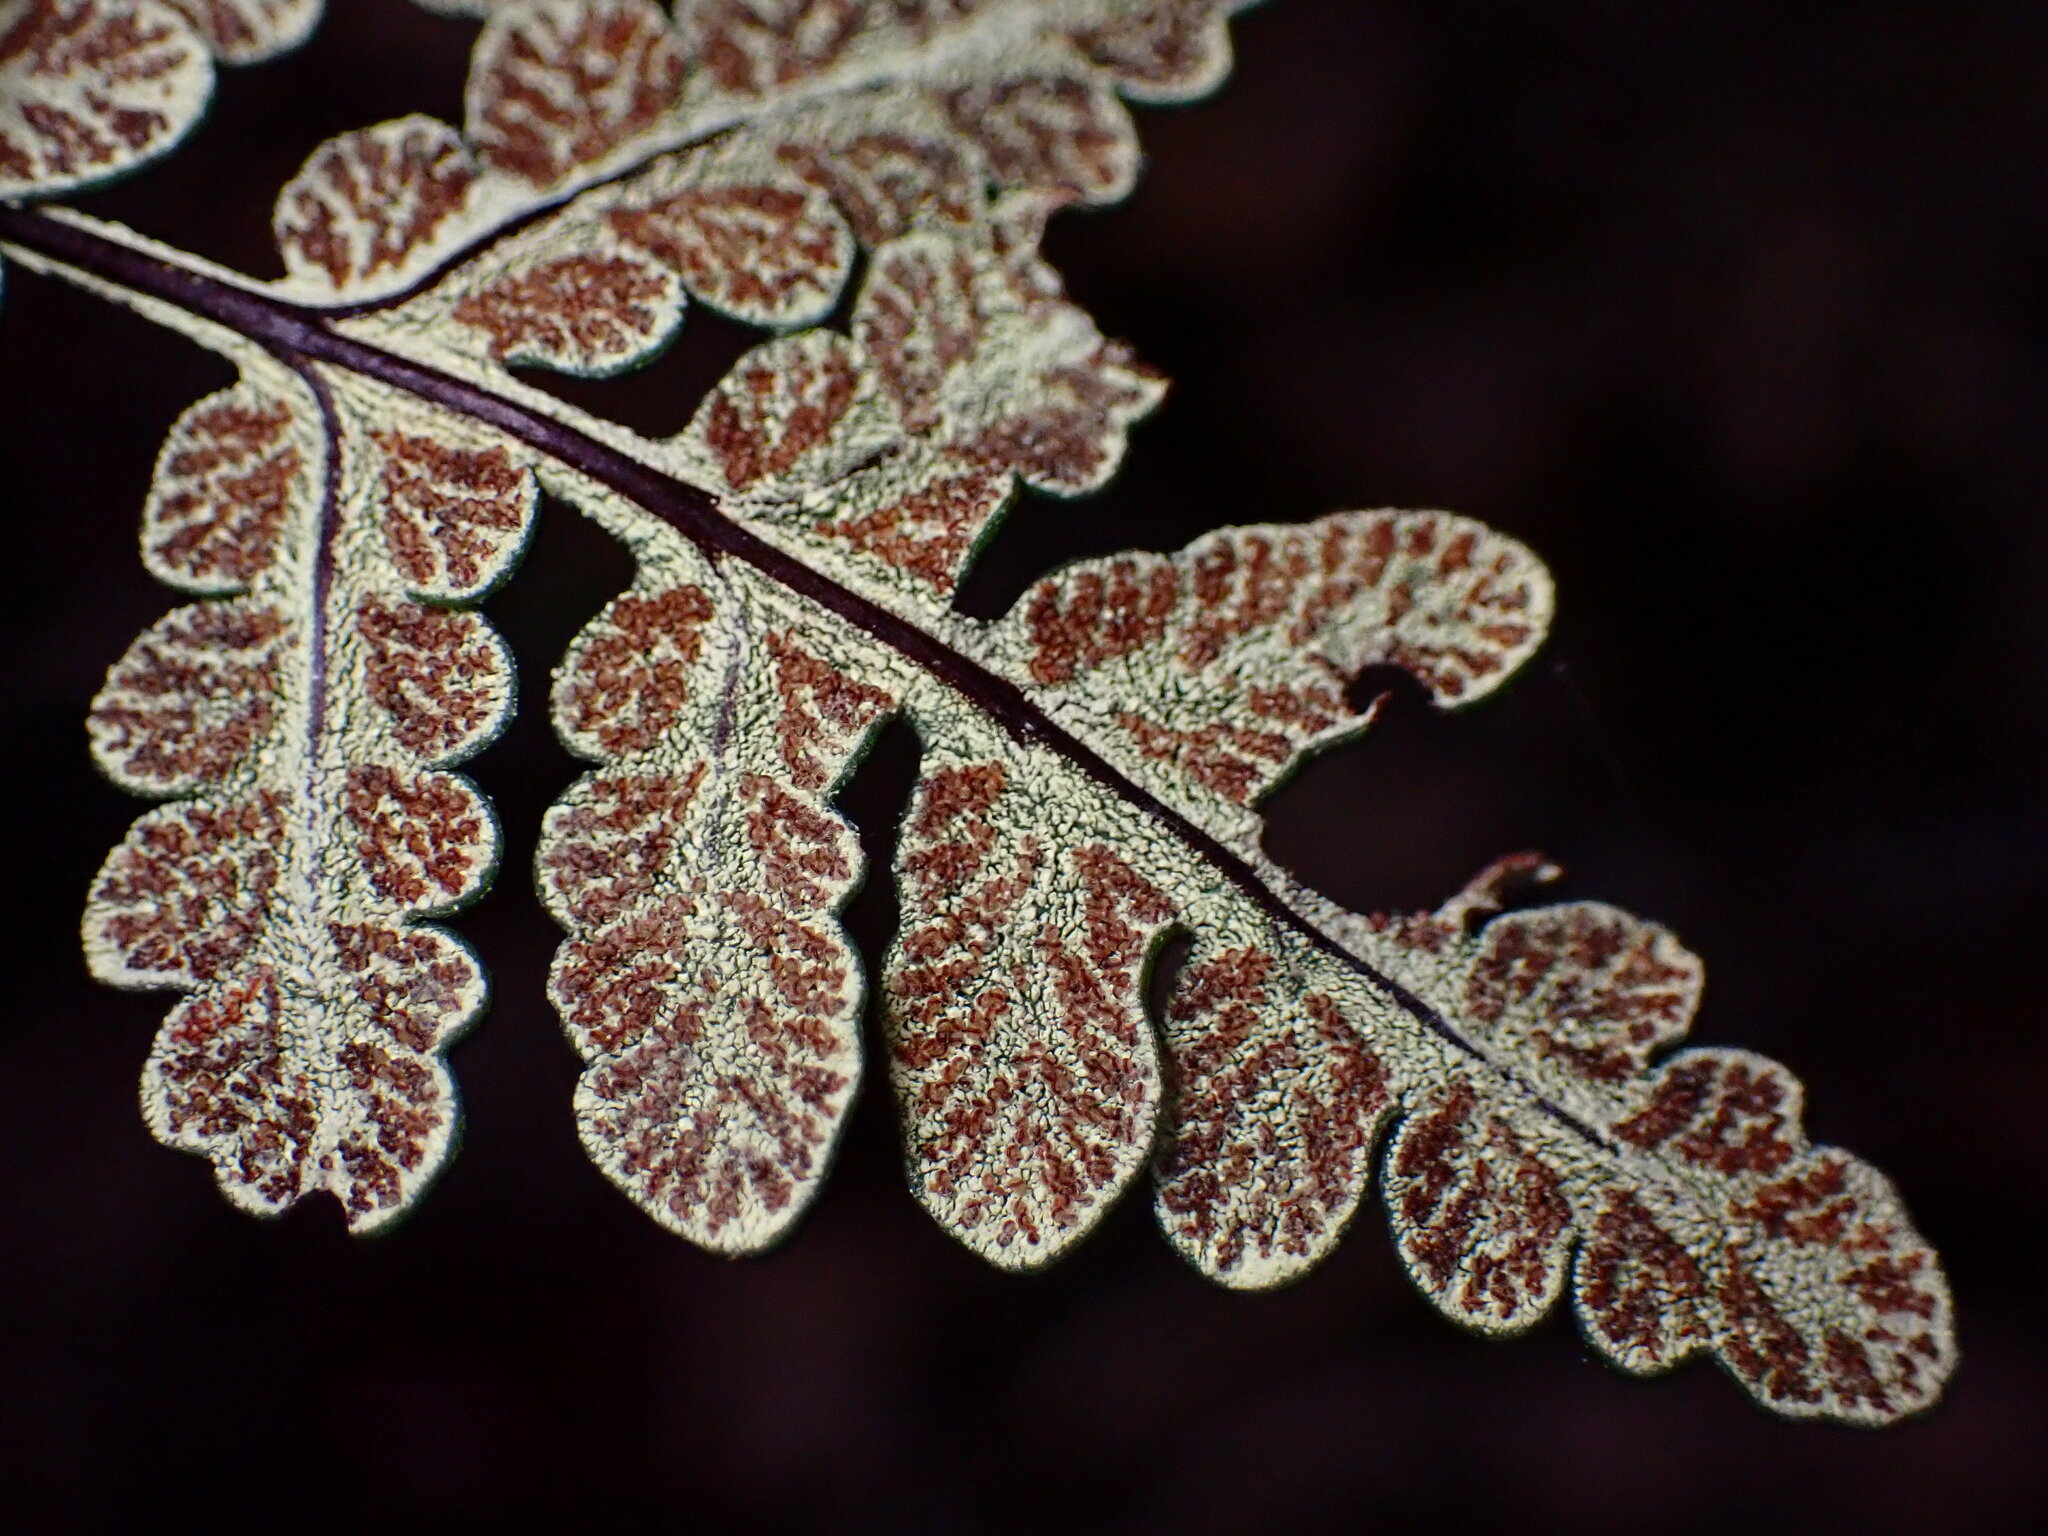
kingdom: Plantae
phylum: Tracheophyta
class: Polypodiopsida
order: Polypodiales
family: Pteridaceae
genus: Pentagramma
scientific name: Pentagramma triangularis
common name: Gold fern
